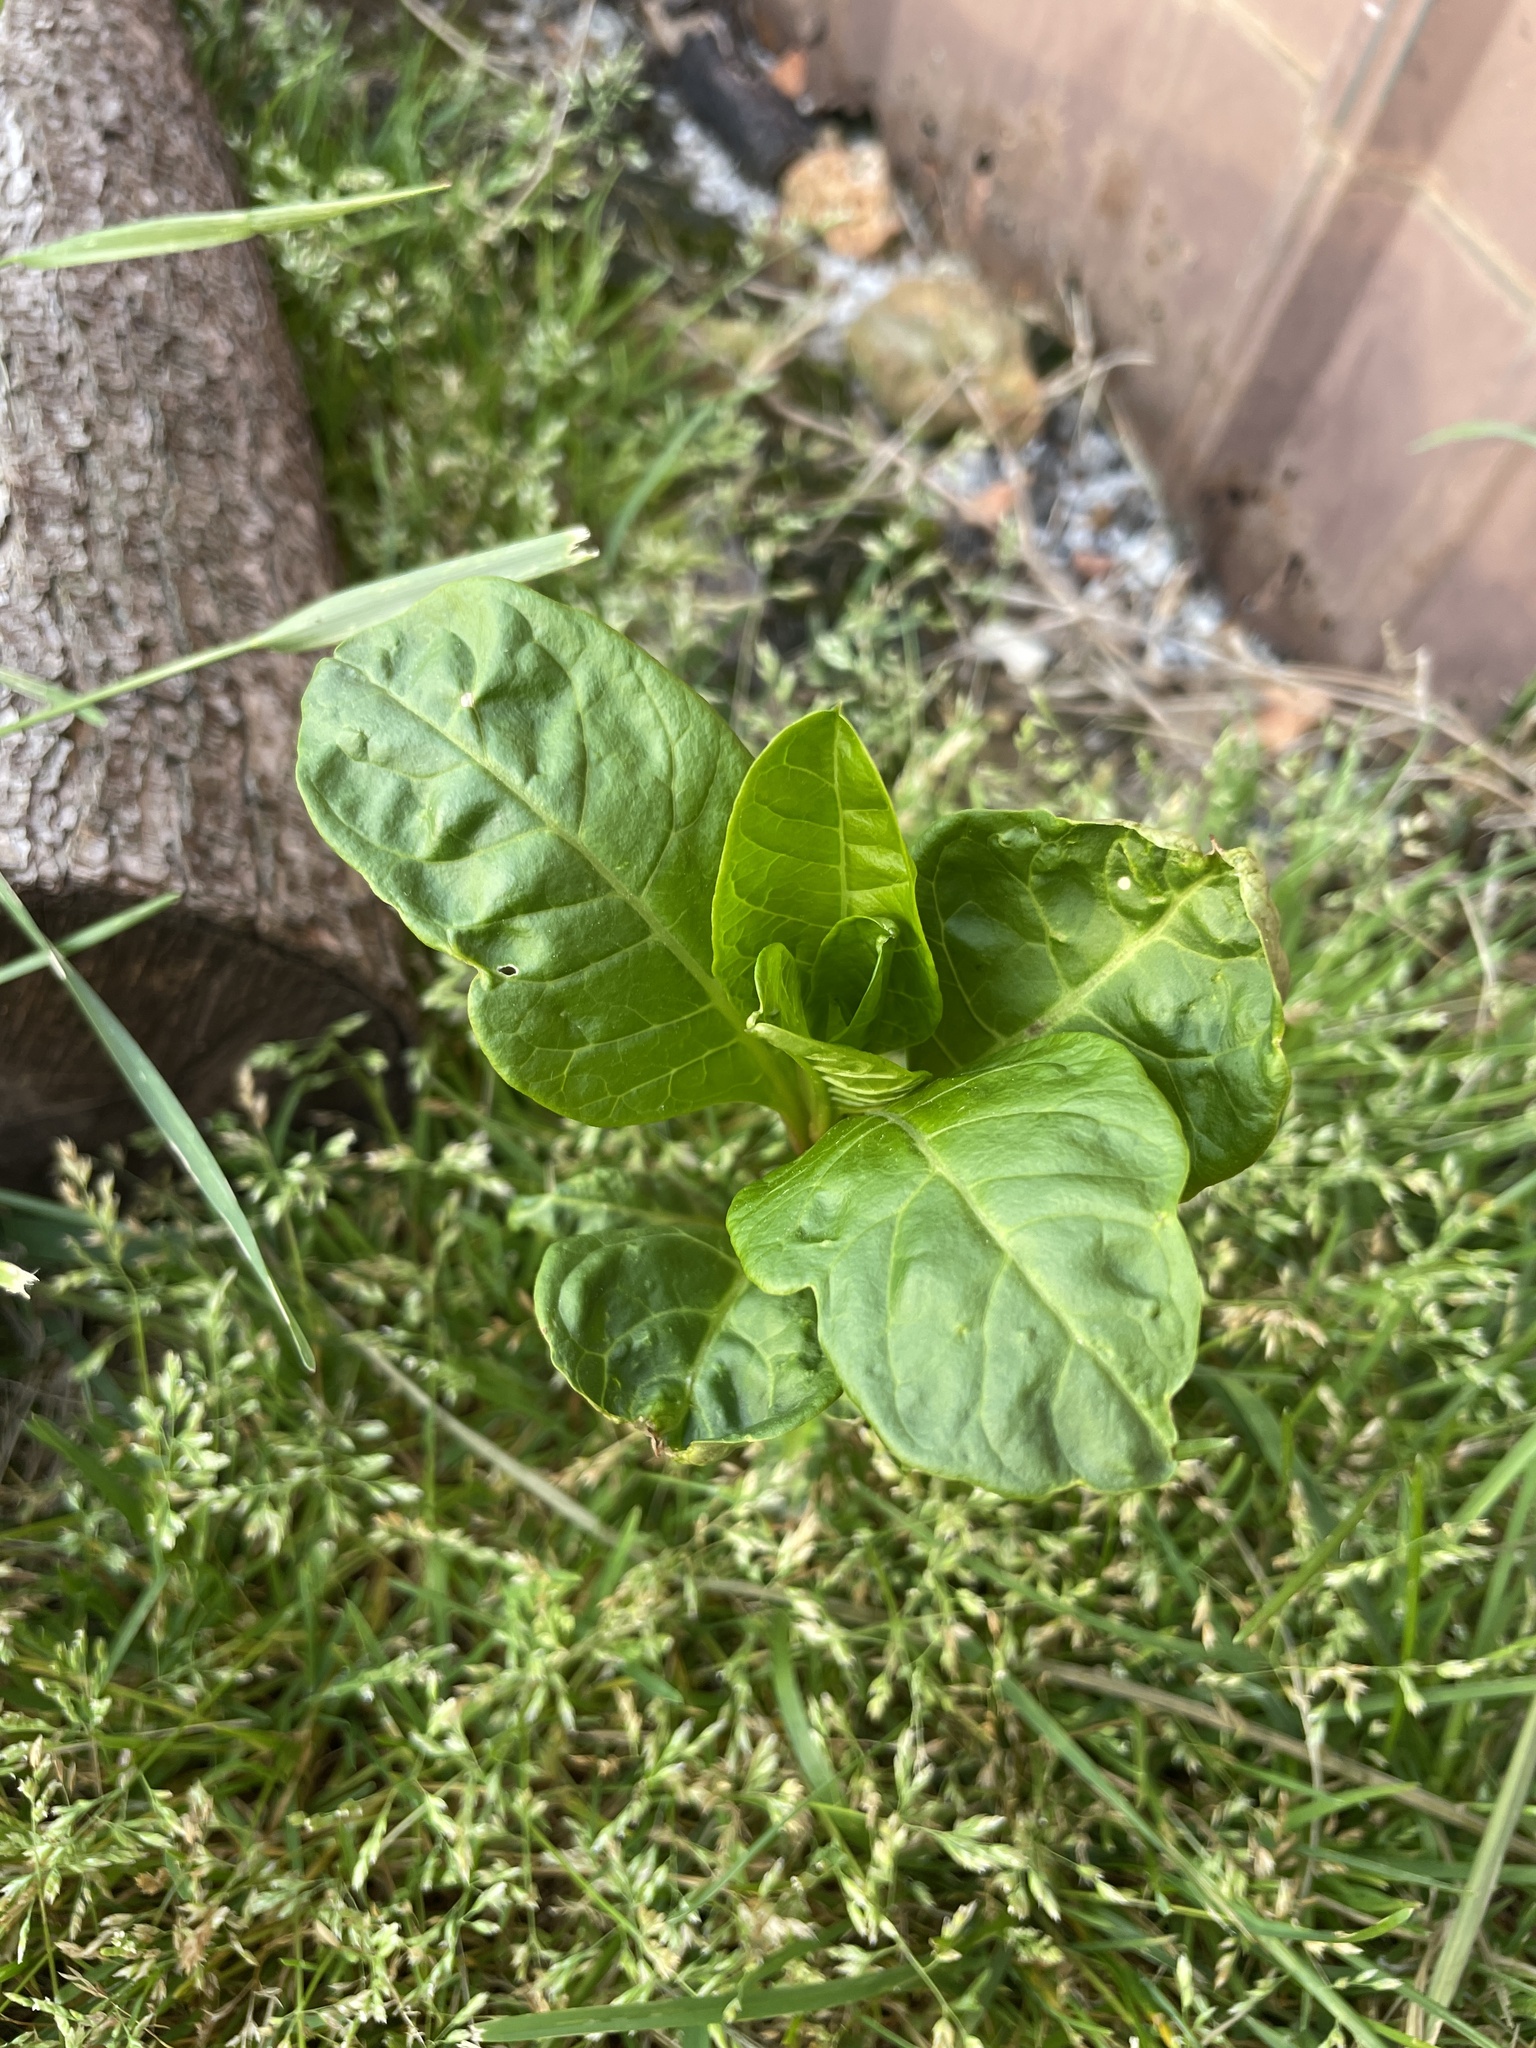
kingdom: Plantae
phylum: Tracheophyta
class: Magnoliopsida
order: Caryophyllales
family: Phytolaccaceae
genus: Phytolacca
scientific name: Phytolacca americana
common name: American pokeweed
